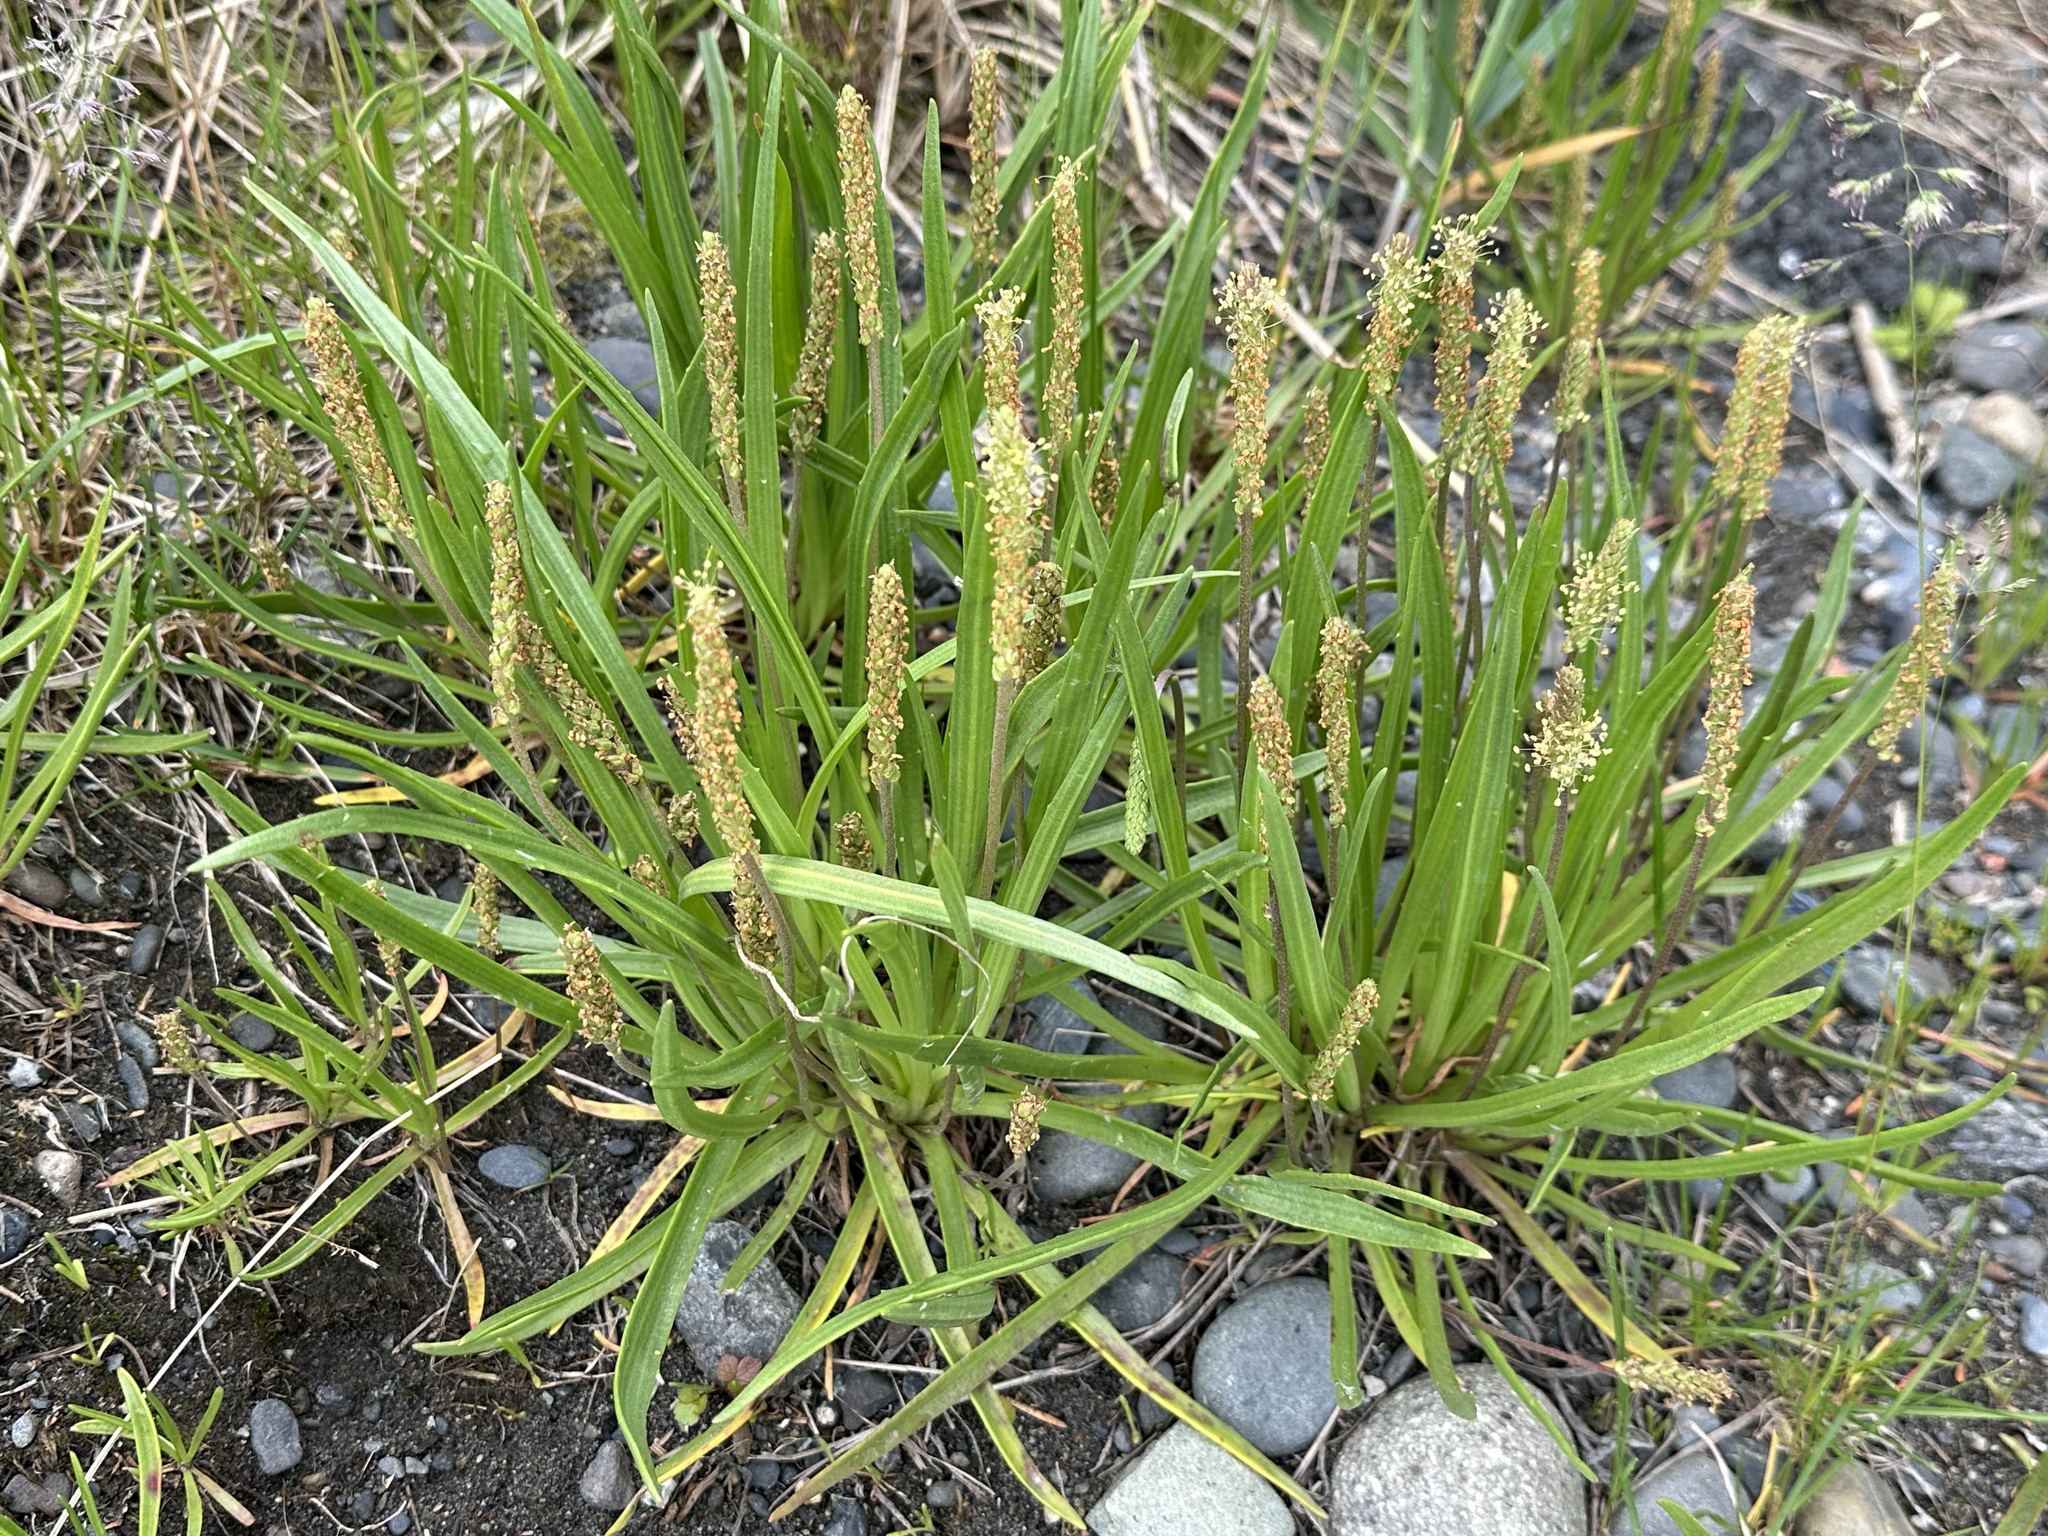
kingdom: Plantae
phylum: Tracheophyta
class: Magnoliopsida
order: Lamiales
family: Plantaginaceae
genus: Plantago
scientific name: Plantago maritima
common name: Sea plantain
